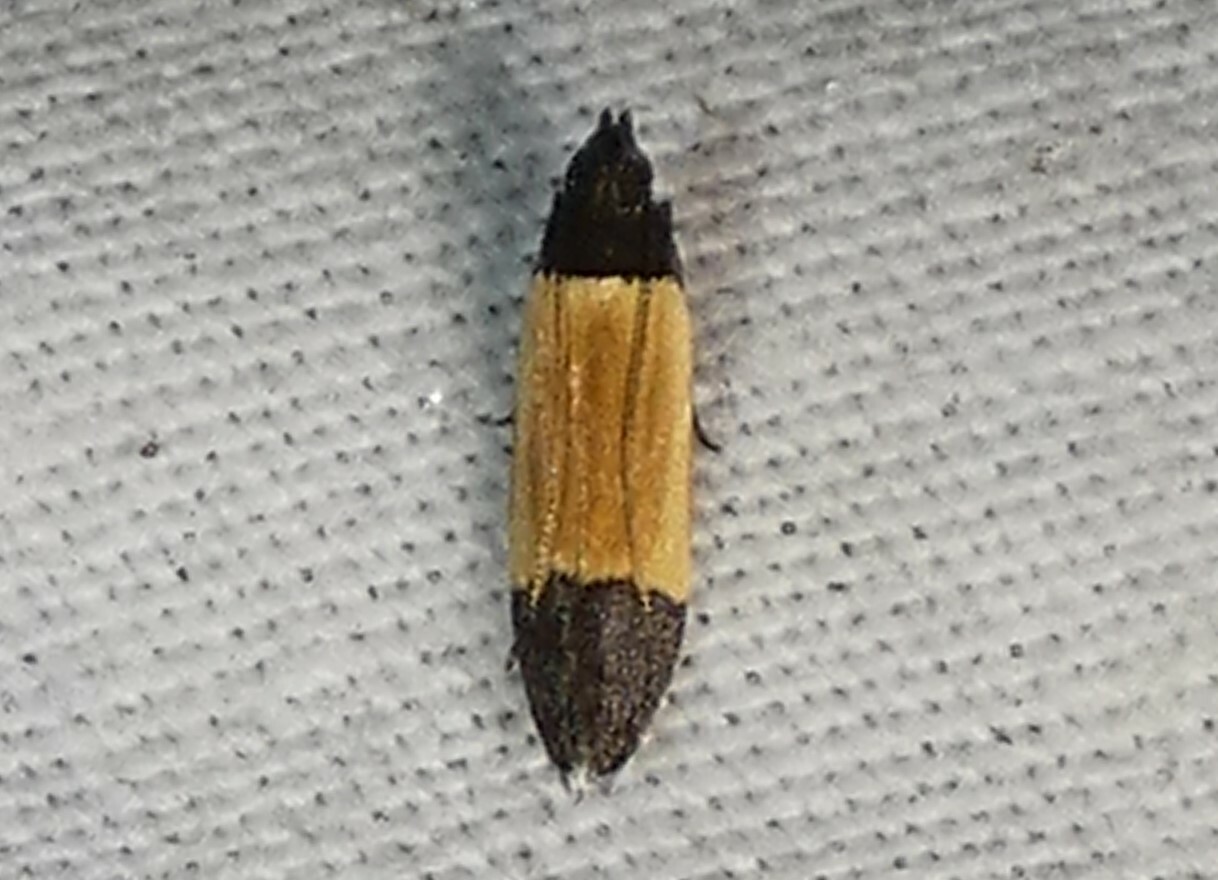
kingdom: Animalia
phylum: Arthropoda
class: Insecta
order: Lepidoptera
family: Gelechiidae
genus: Anacampsis
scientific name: Anacampsis coverdalella
